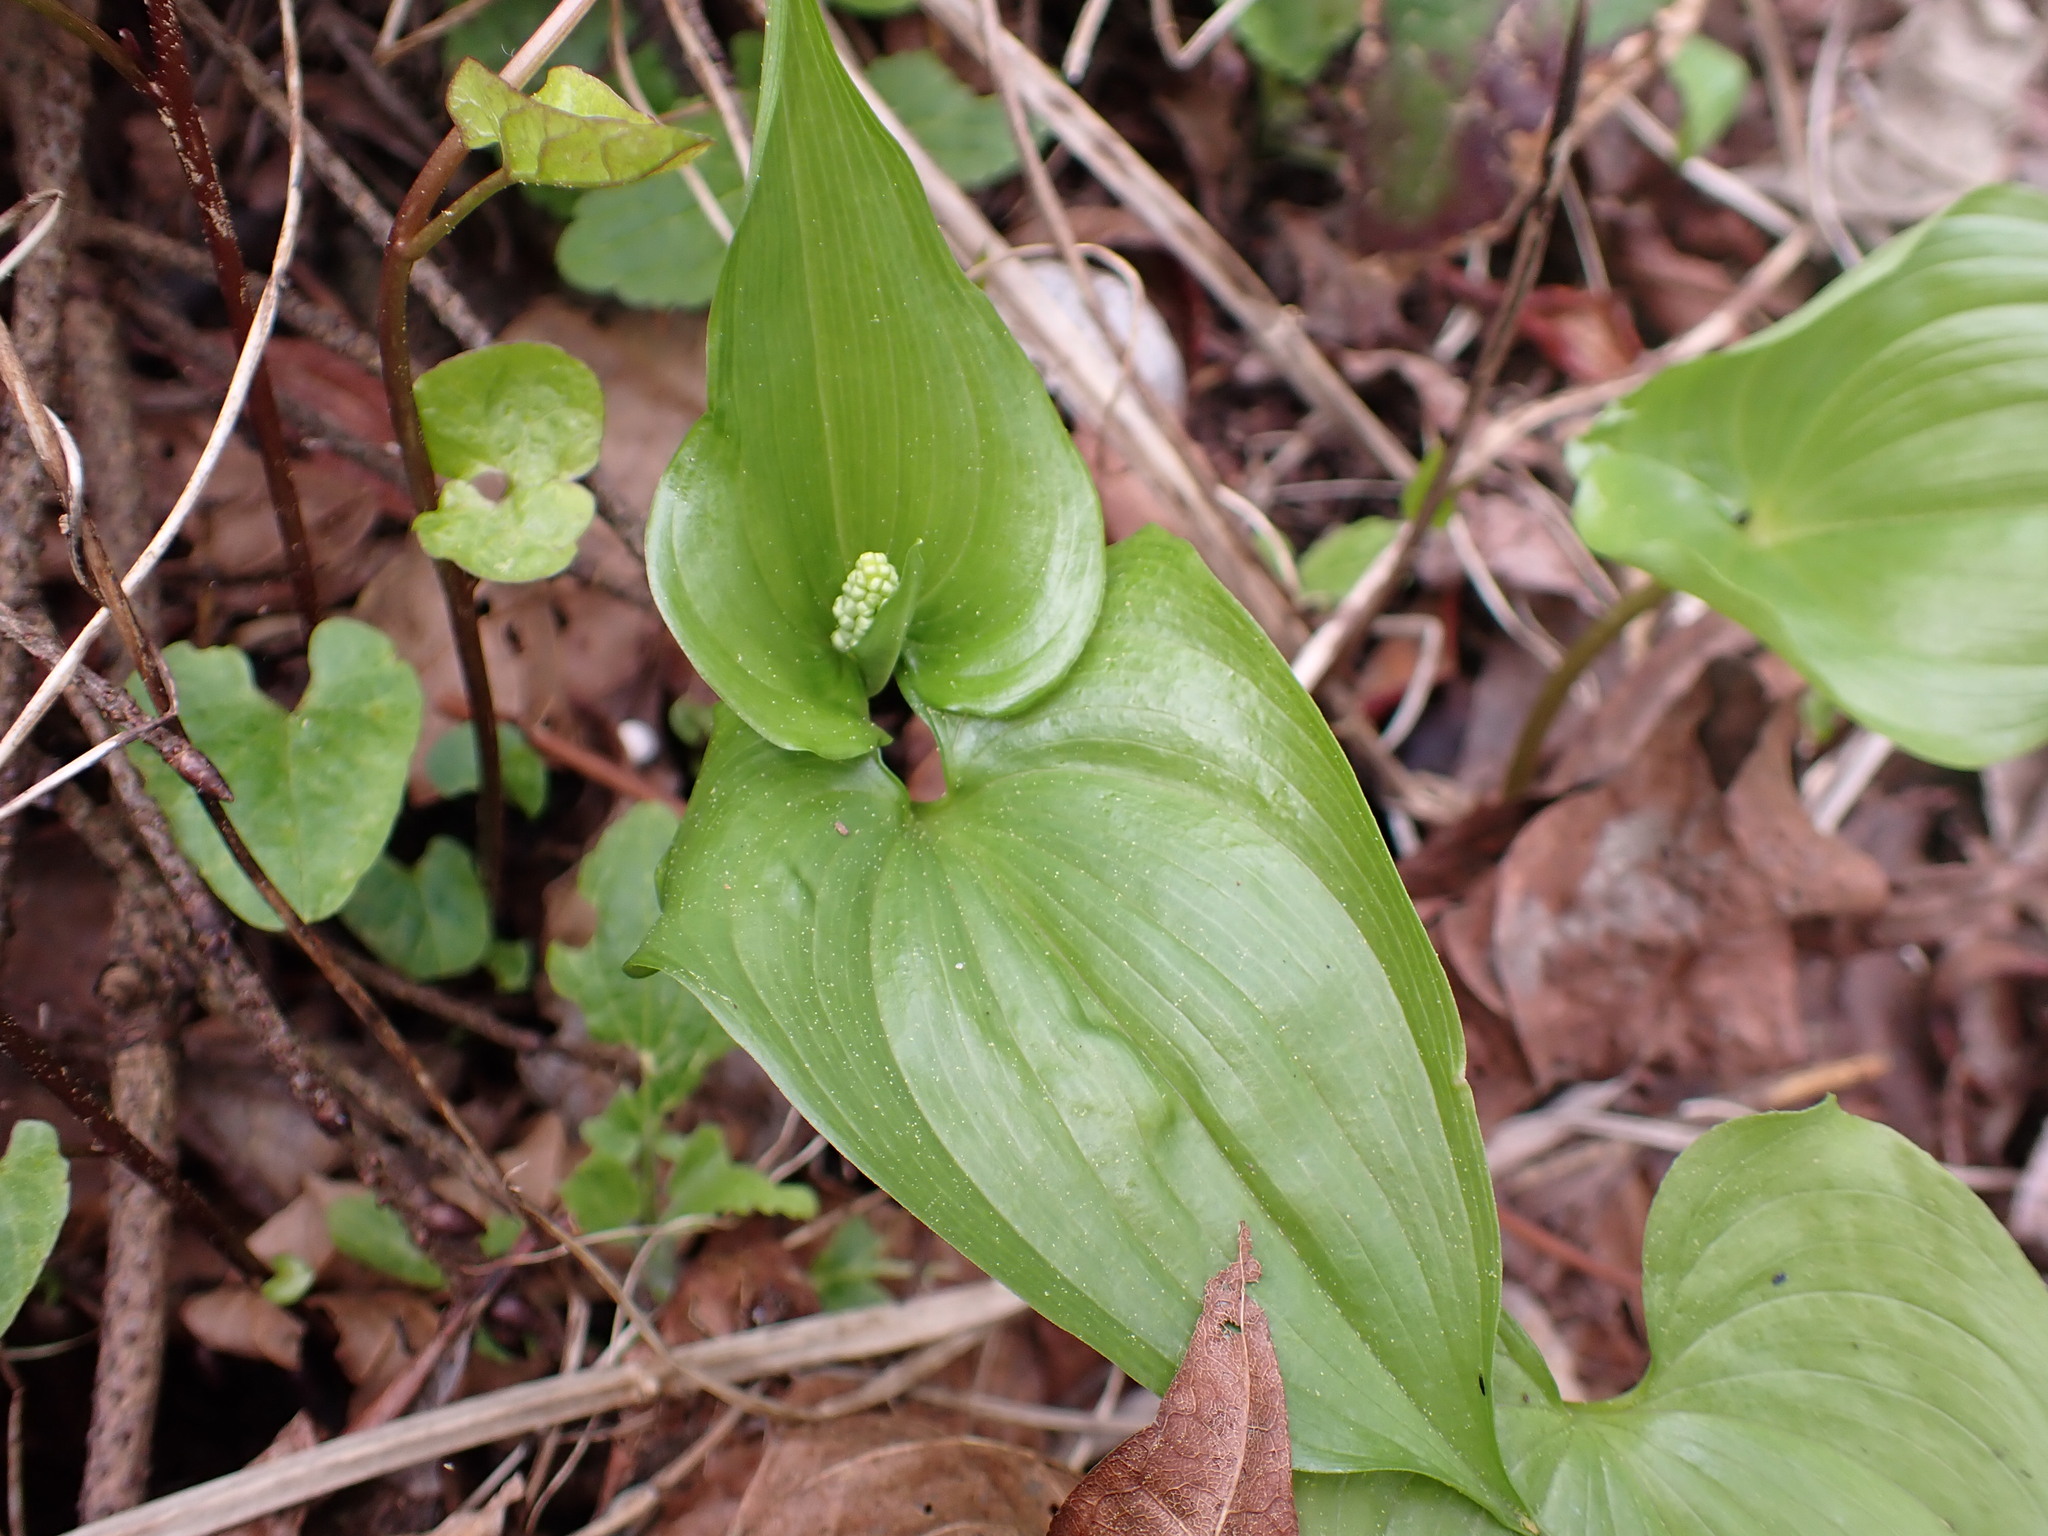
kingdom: Plantae
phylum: Tracheophyta
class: Liliopsida
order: Asparagales
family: Asparagaceae
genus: Maianthemum
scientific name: Maianthemum dilatatum
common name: False lily-of-the-valley
